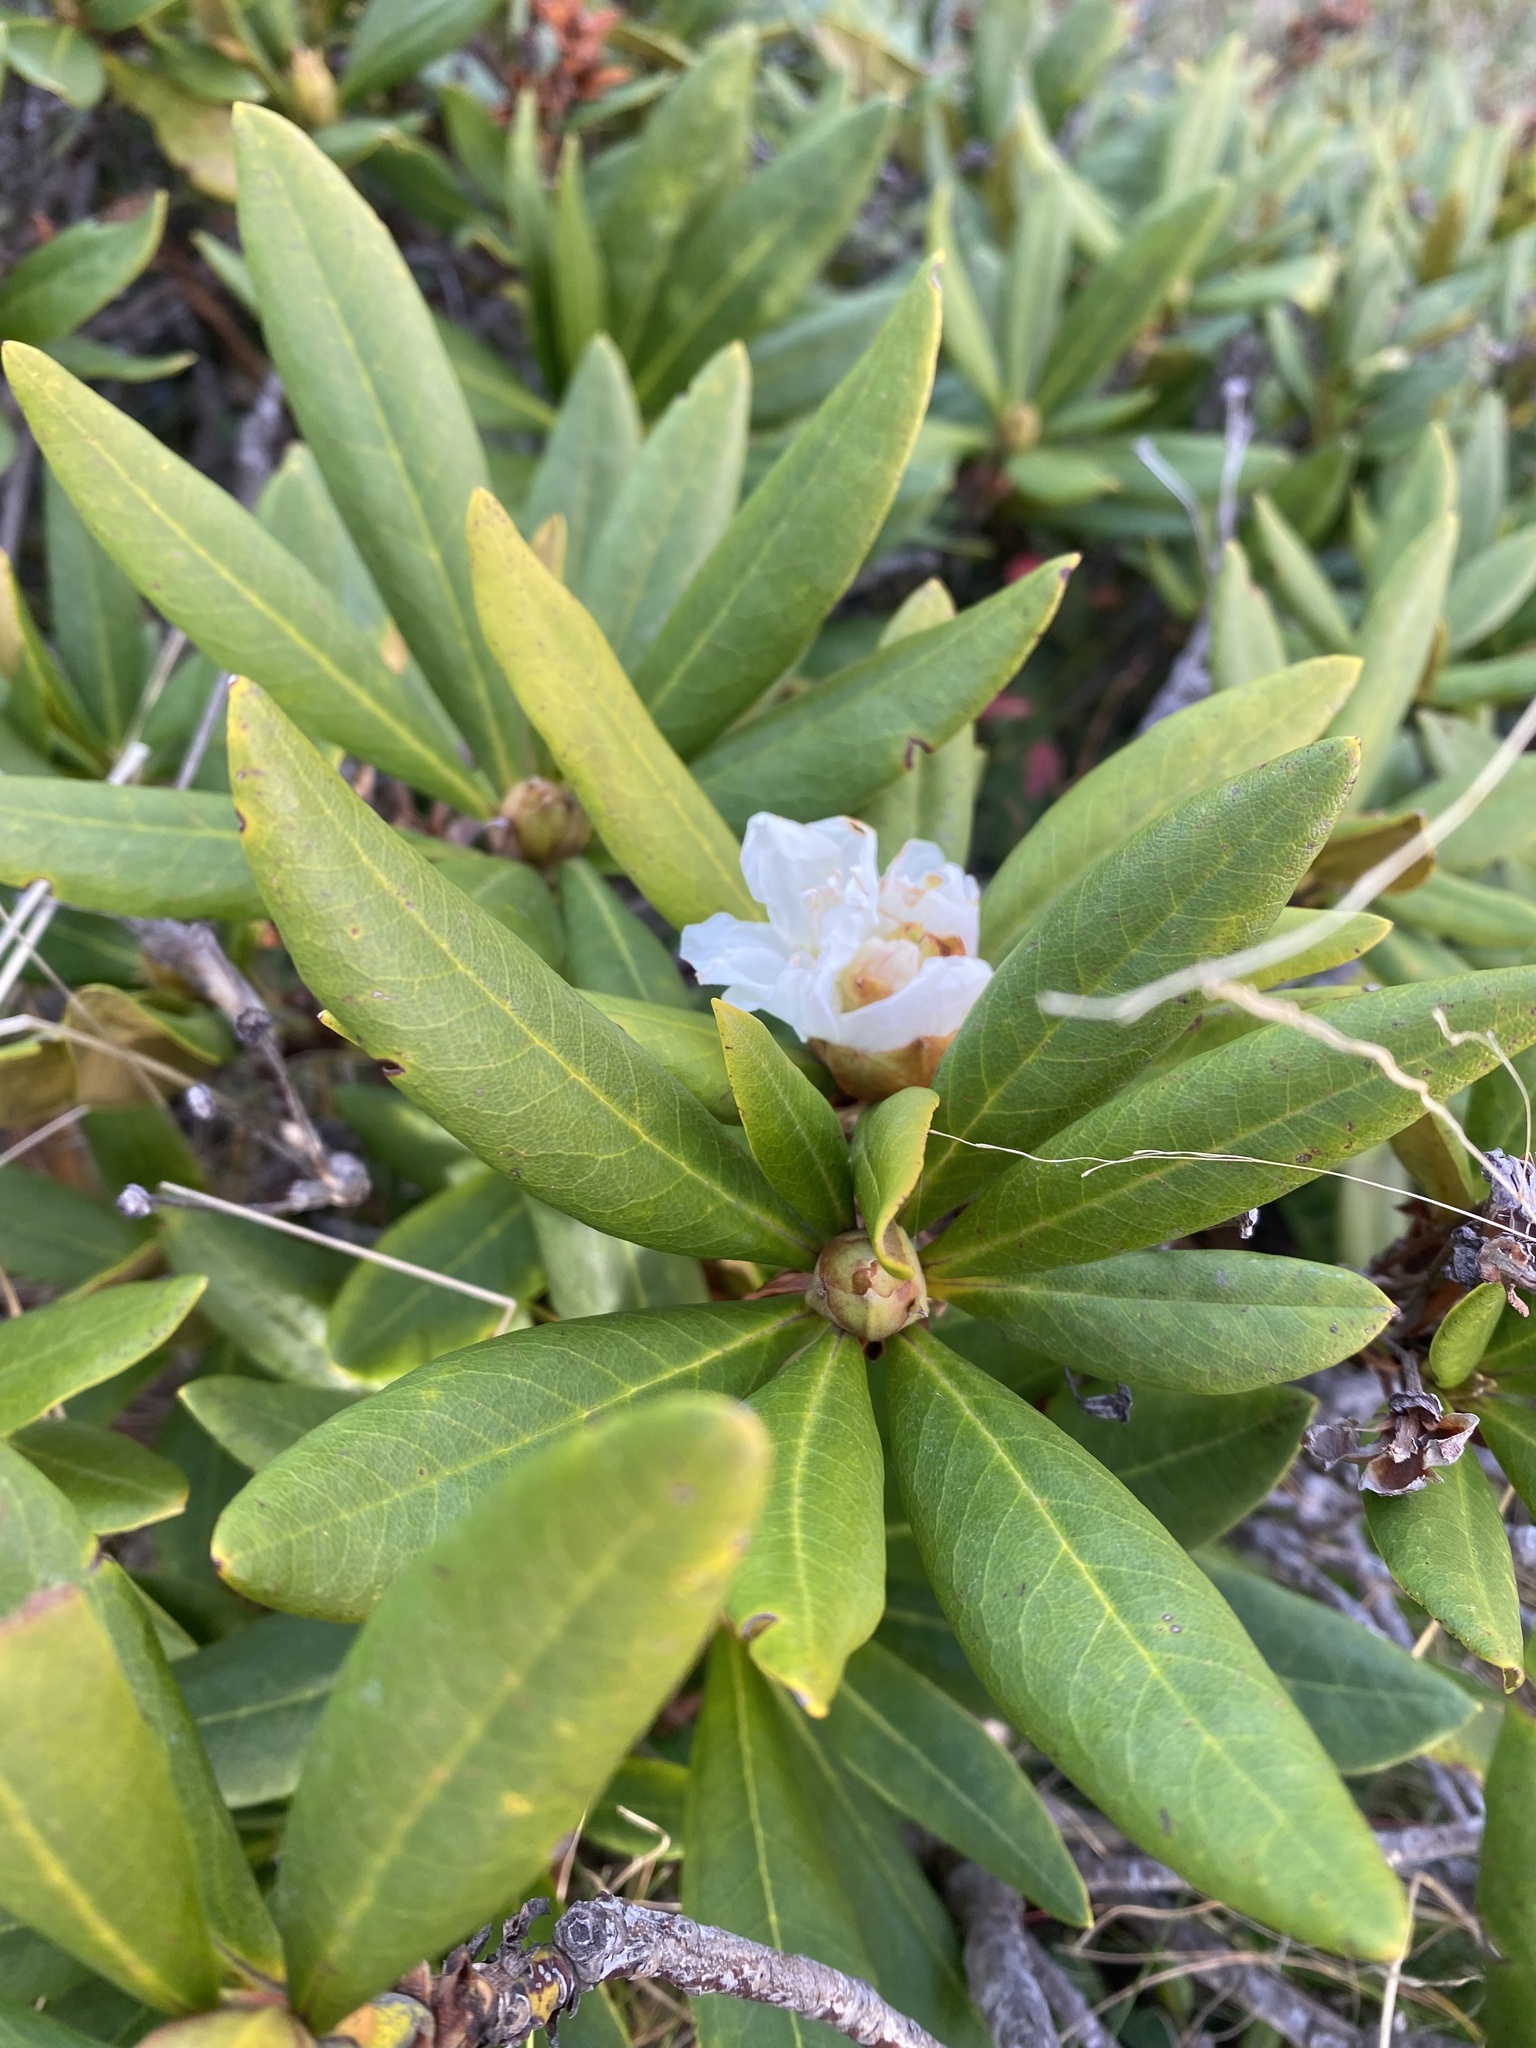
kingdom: Plantae
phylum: Tracheophyta
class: Magnoliopsida
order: Ericales
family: Ericaceae
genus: Rhododendron
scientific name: Rhododendron caucasicum
